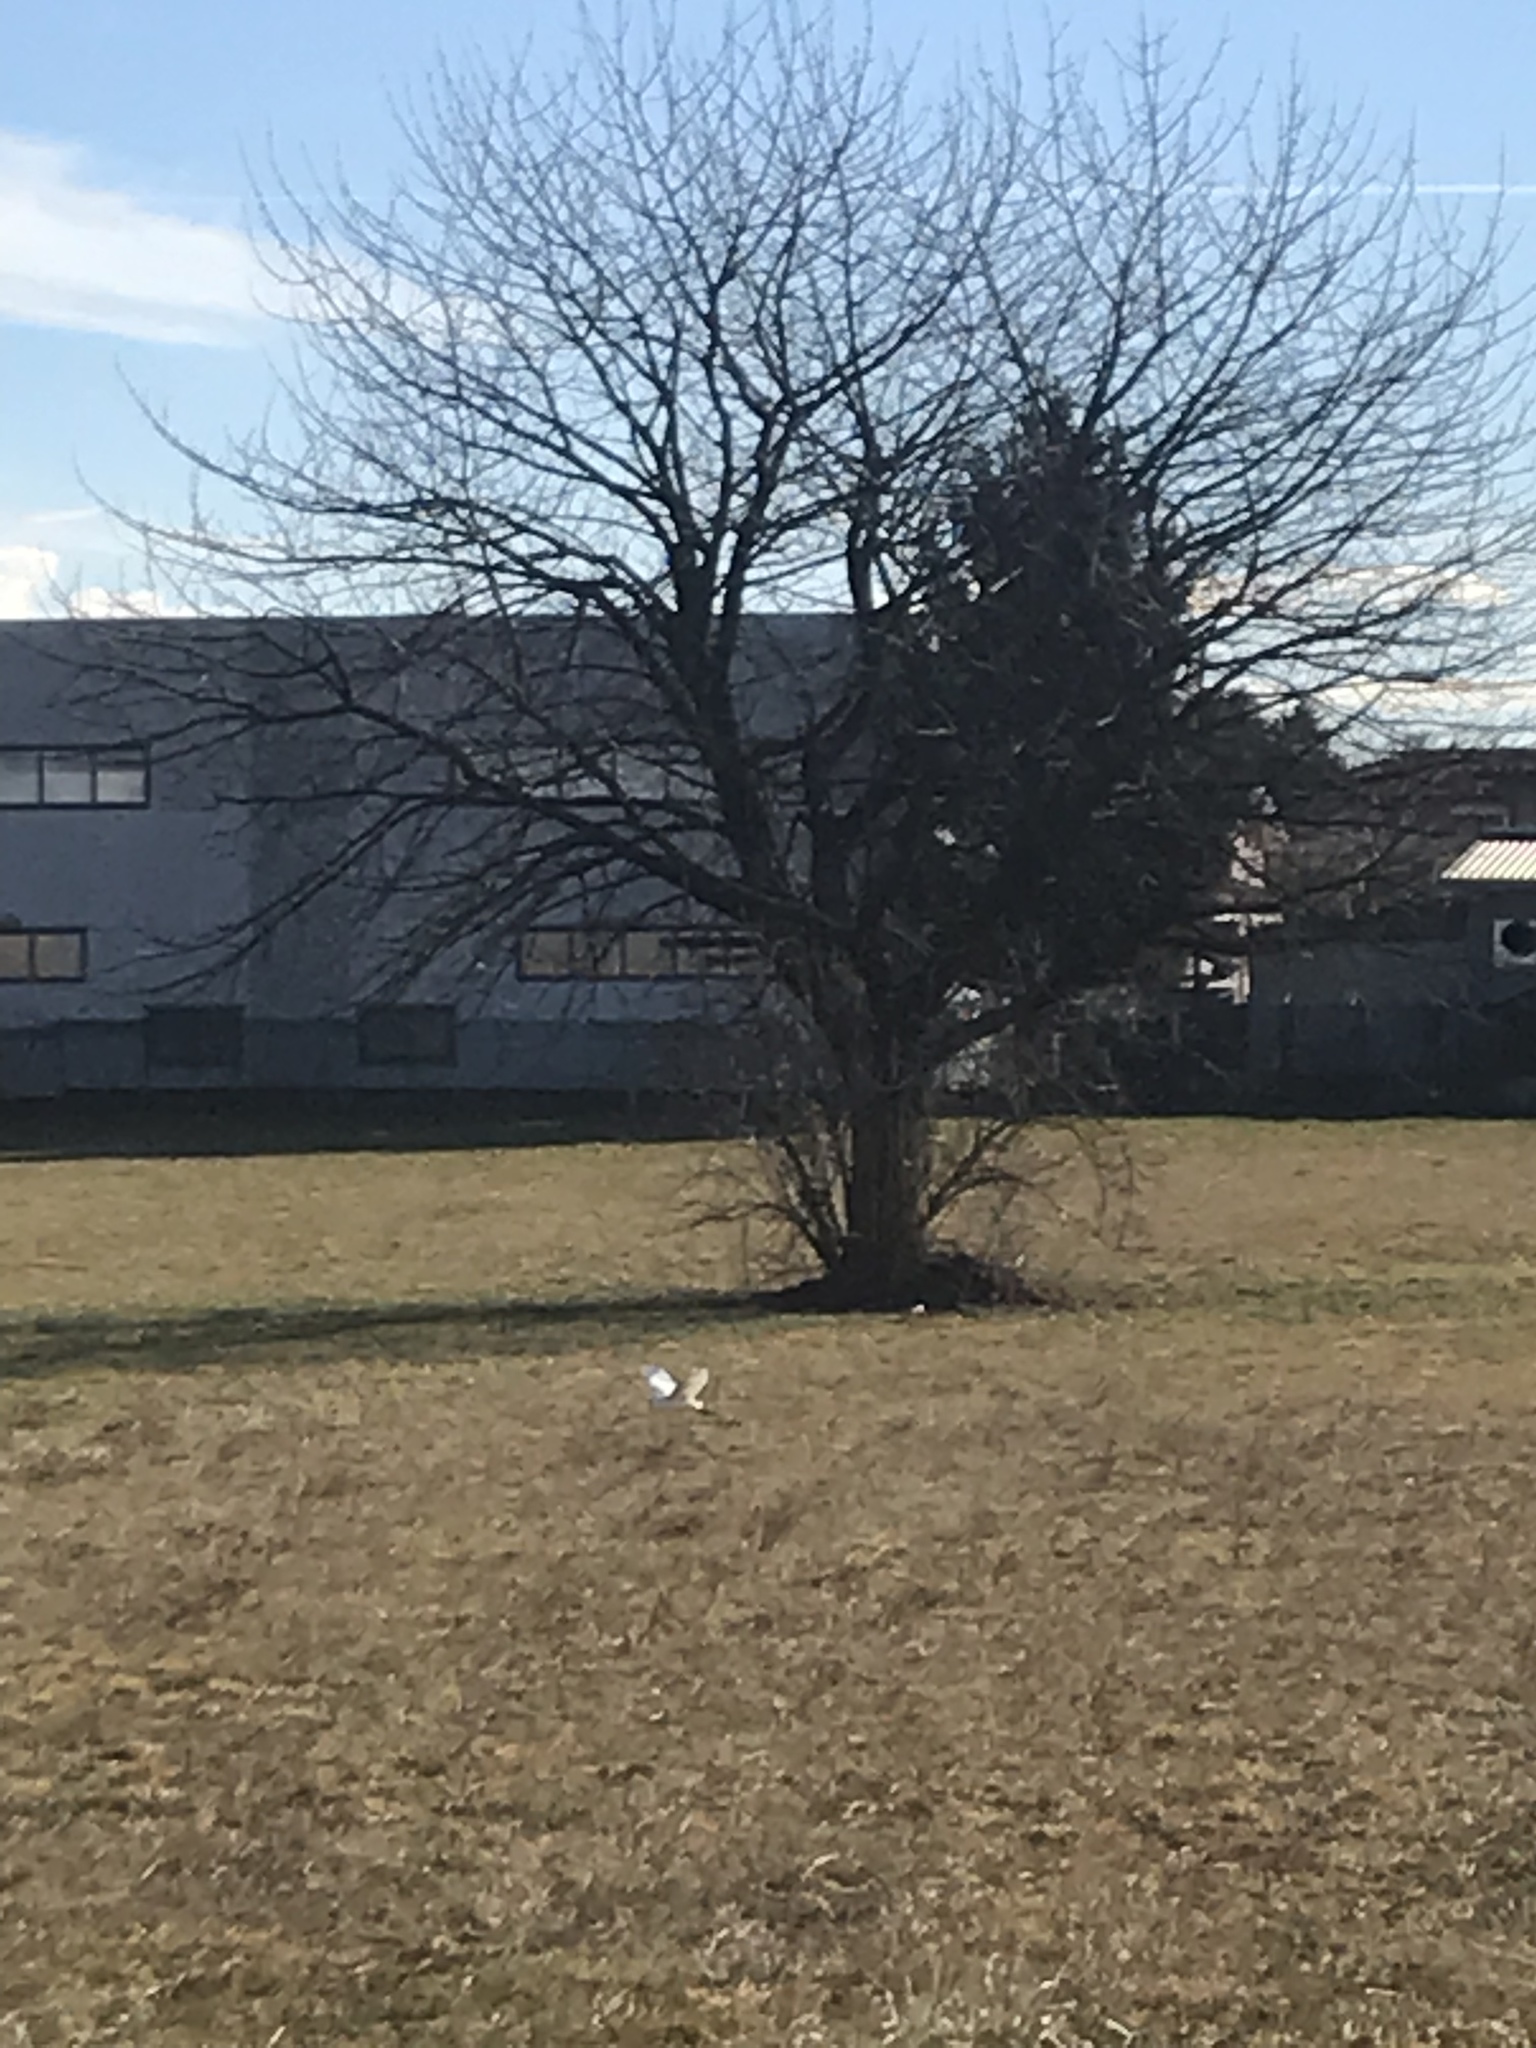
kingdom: Animalia
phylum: Chordata
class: Aves
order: Pelecaniformes
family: Ardeidae
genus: Bubulcus
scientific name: Bubulcus ibis
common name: Cattle egret
